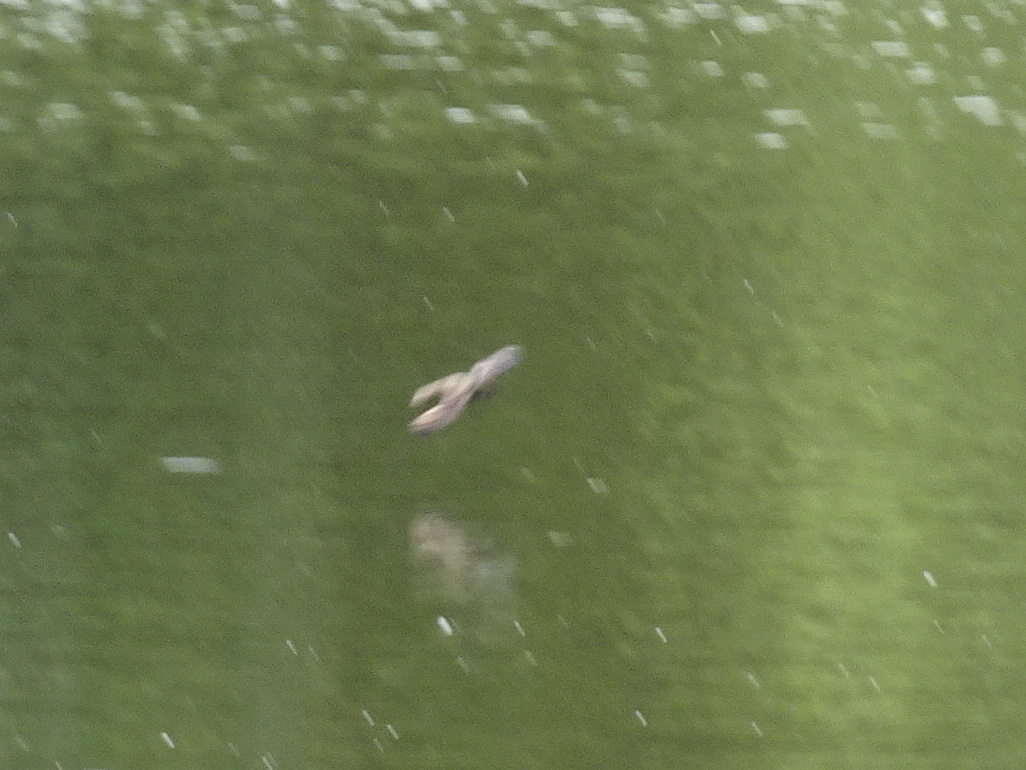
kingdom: Animalia
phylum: Chordata
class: Aves
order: Apodiformes
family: Apodidae
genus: Chaetura
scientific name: Chaetura pelagica
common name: Chimney swift
